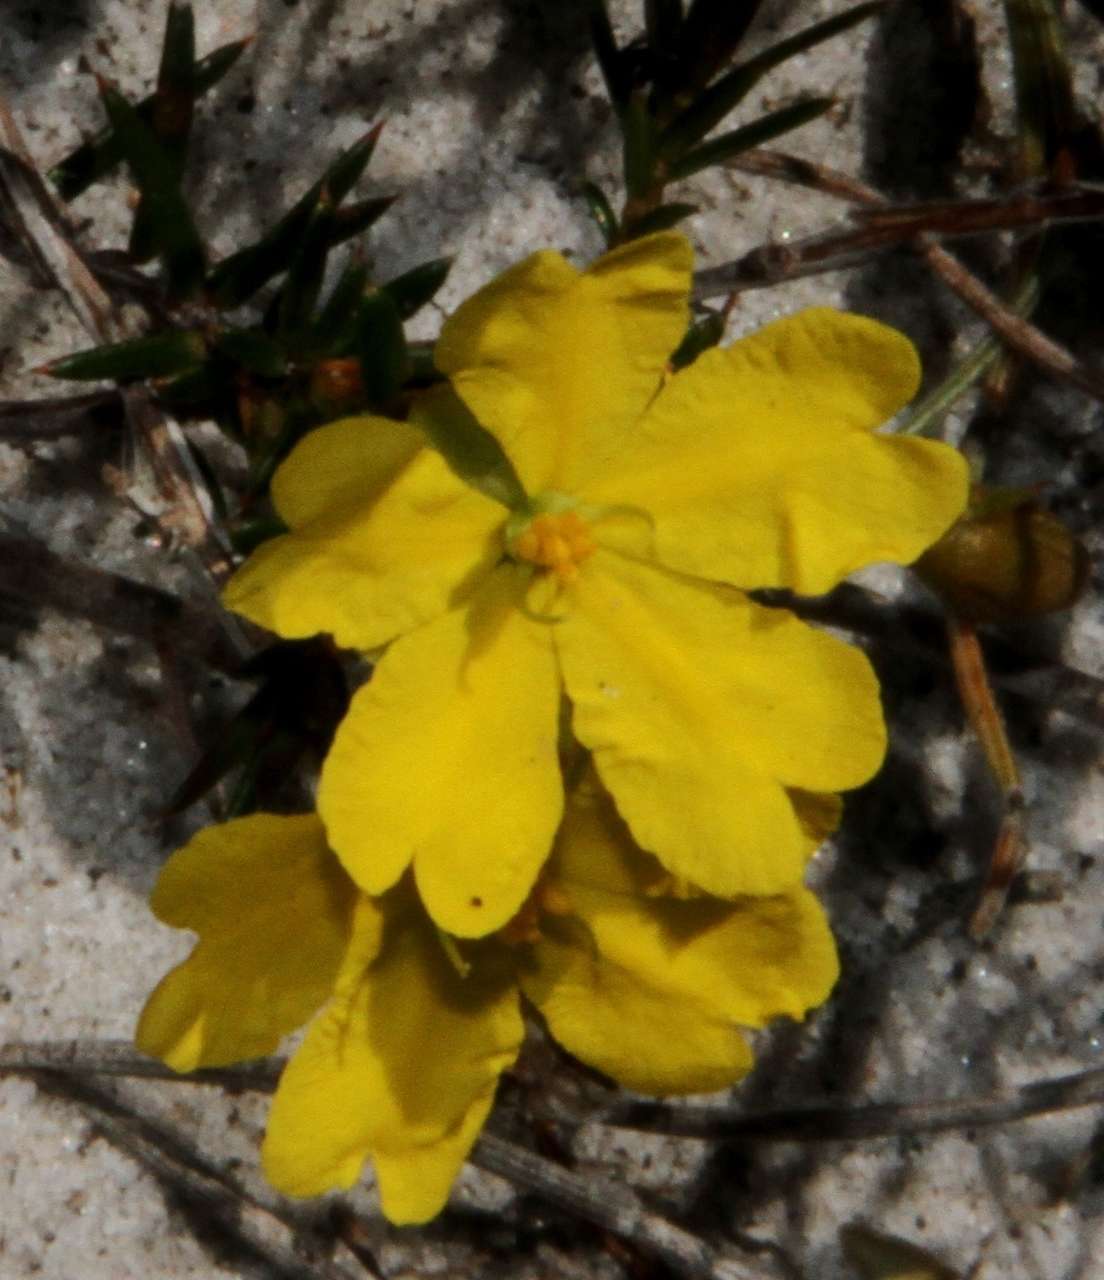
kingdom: Plantae
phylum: Tracheophyta
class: Magnoliopsida
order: Dilleniales
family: Dilleniaceae
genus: Hibbertia
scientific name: Hibbertia acicularis
